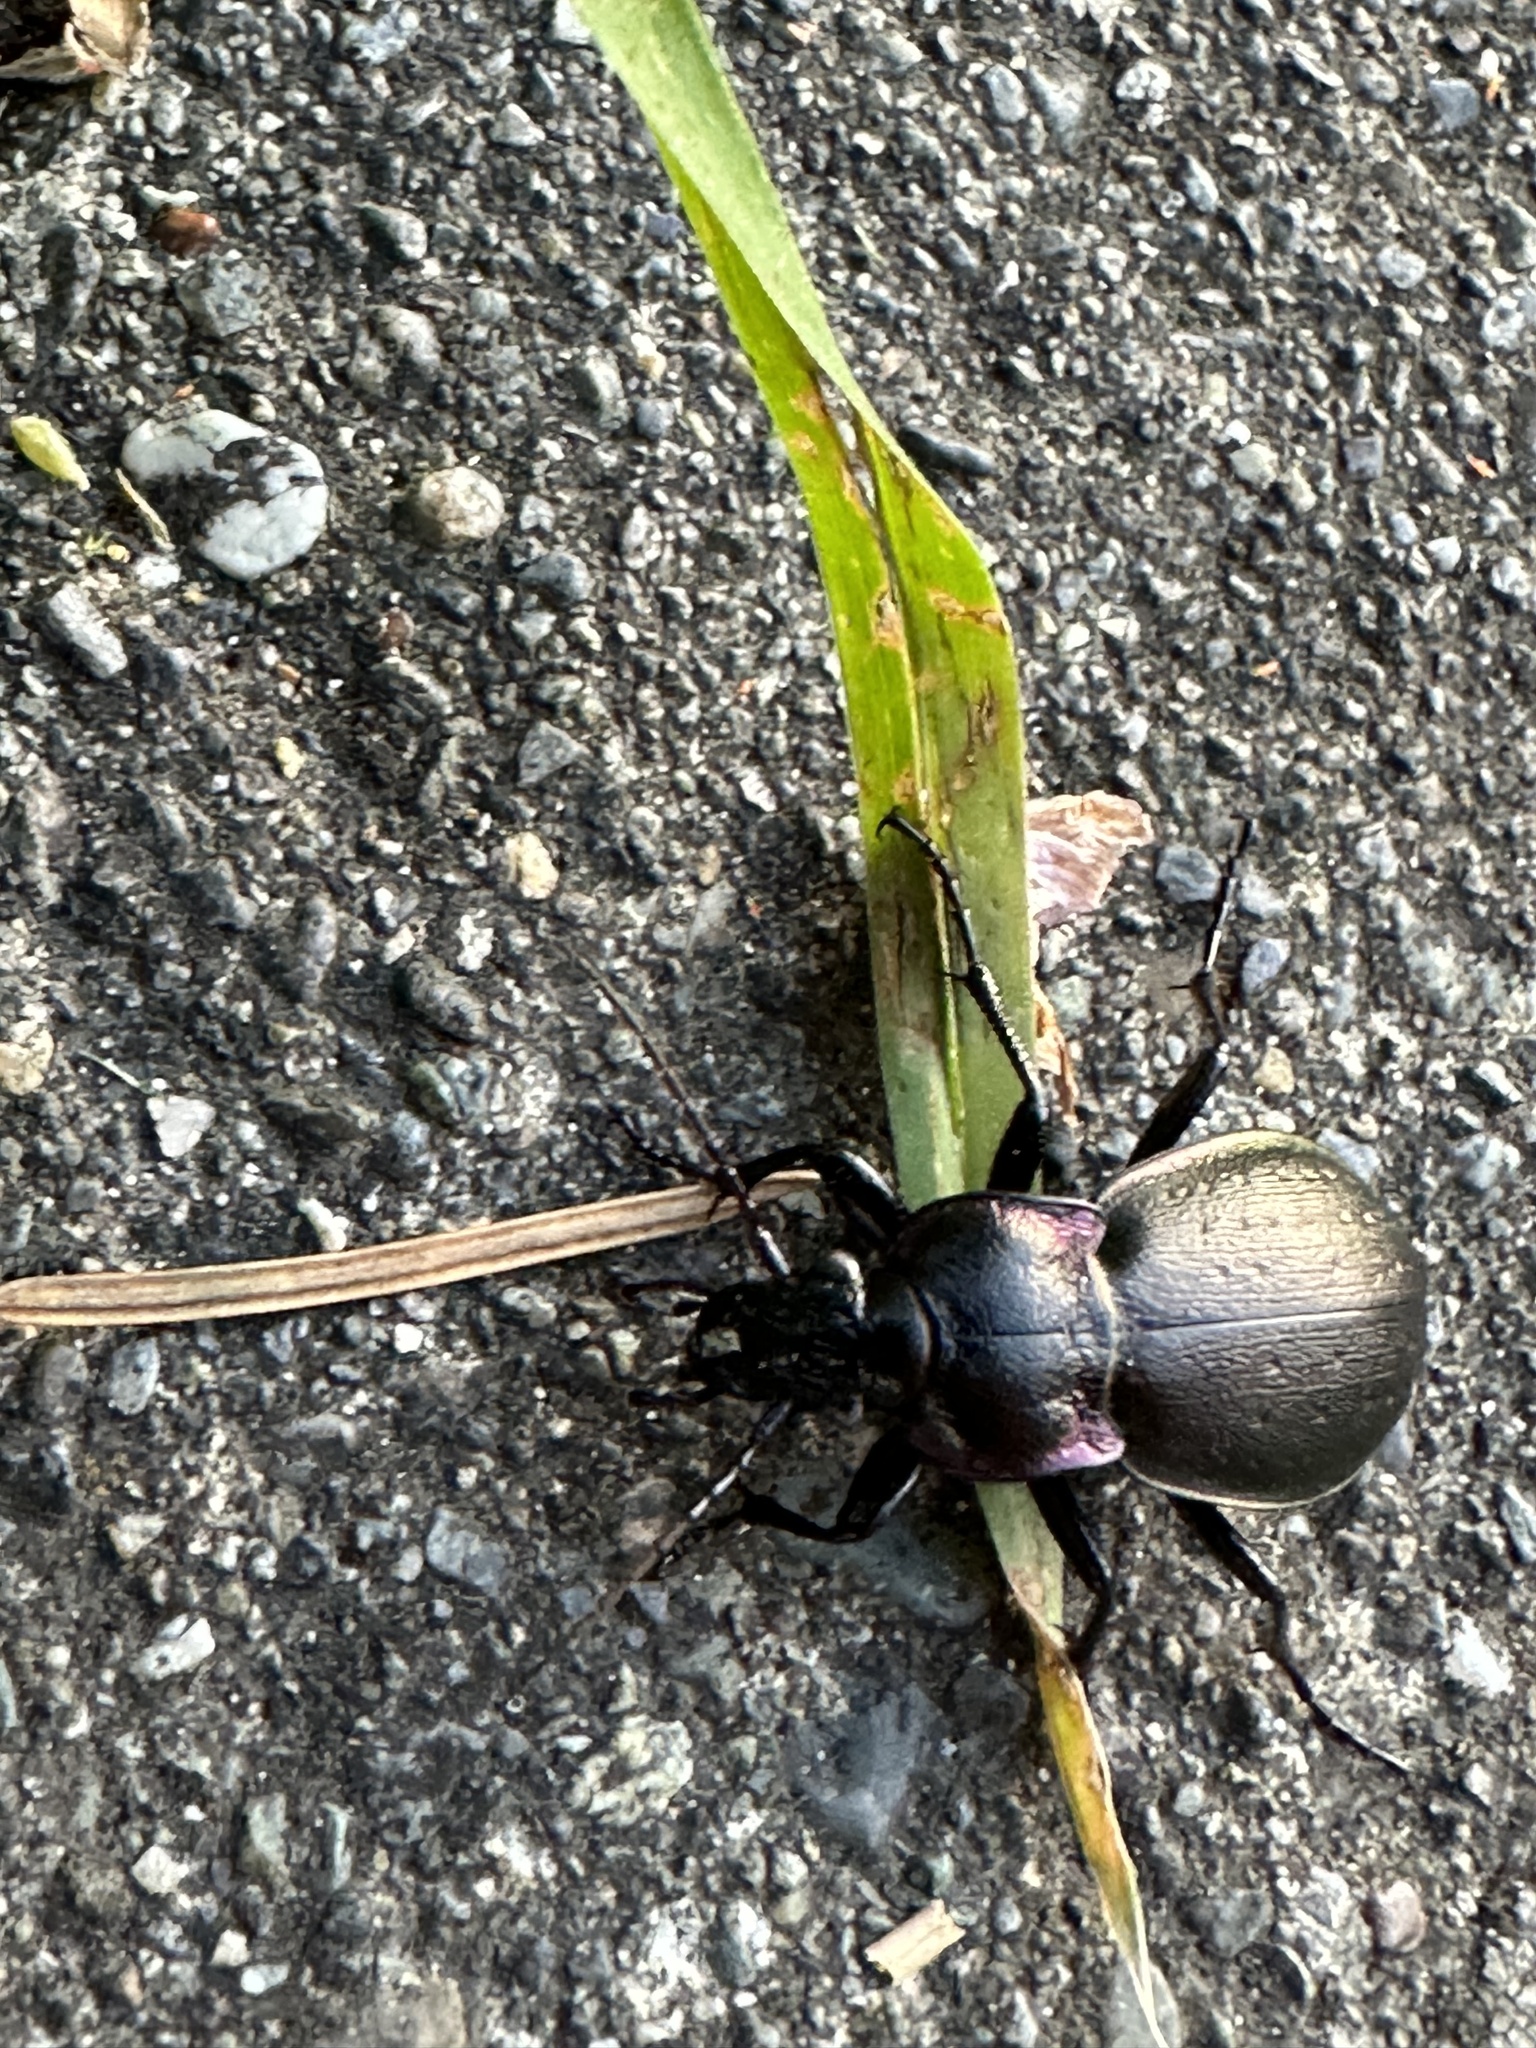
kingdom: Animalia
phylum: Arthropoda
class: Insecta
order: Coleoptera
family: Carabidae
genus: Carabus
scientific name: Carabus nemoralis
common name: European ground beetle
